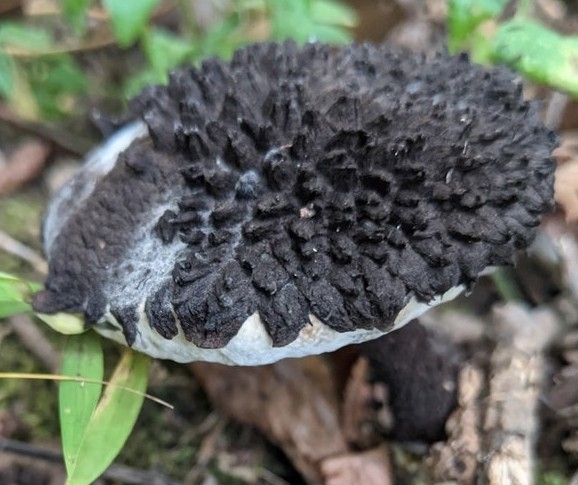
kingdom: Fungi
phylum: Basidiomycota
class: Agaricomycetes
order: Boletales
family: Boletaceae
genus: Strobilomyces
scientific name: Strobilomyces strobilaceus
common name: Old man of the woods
